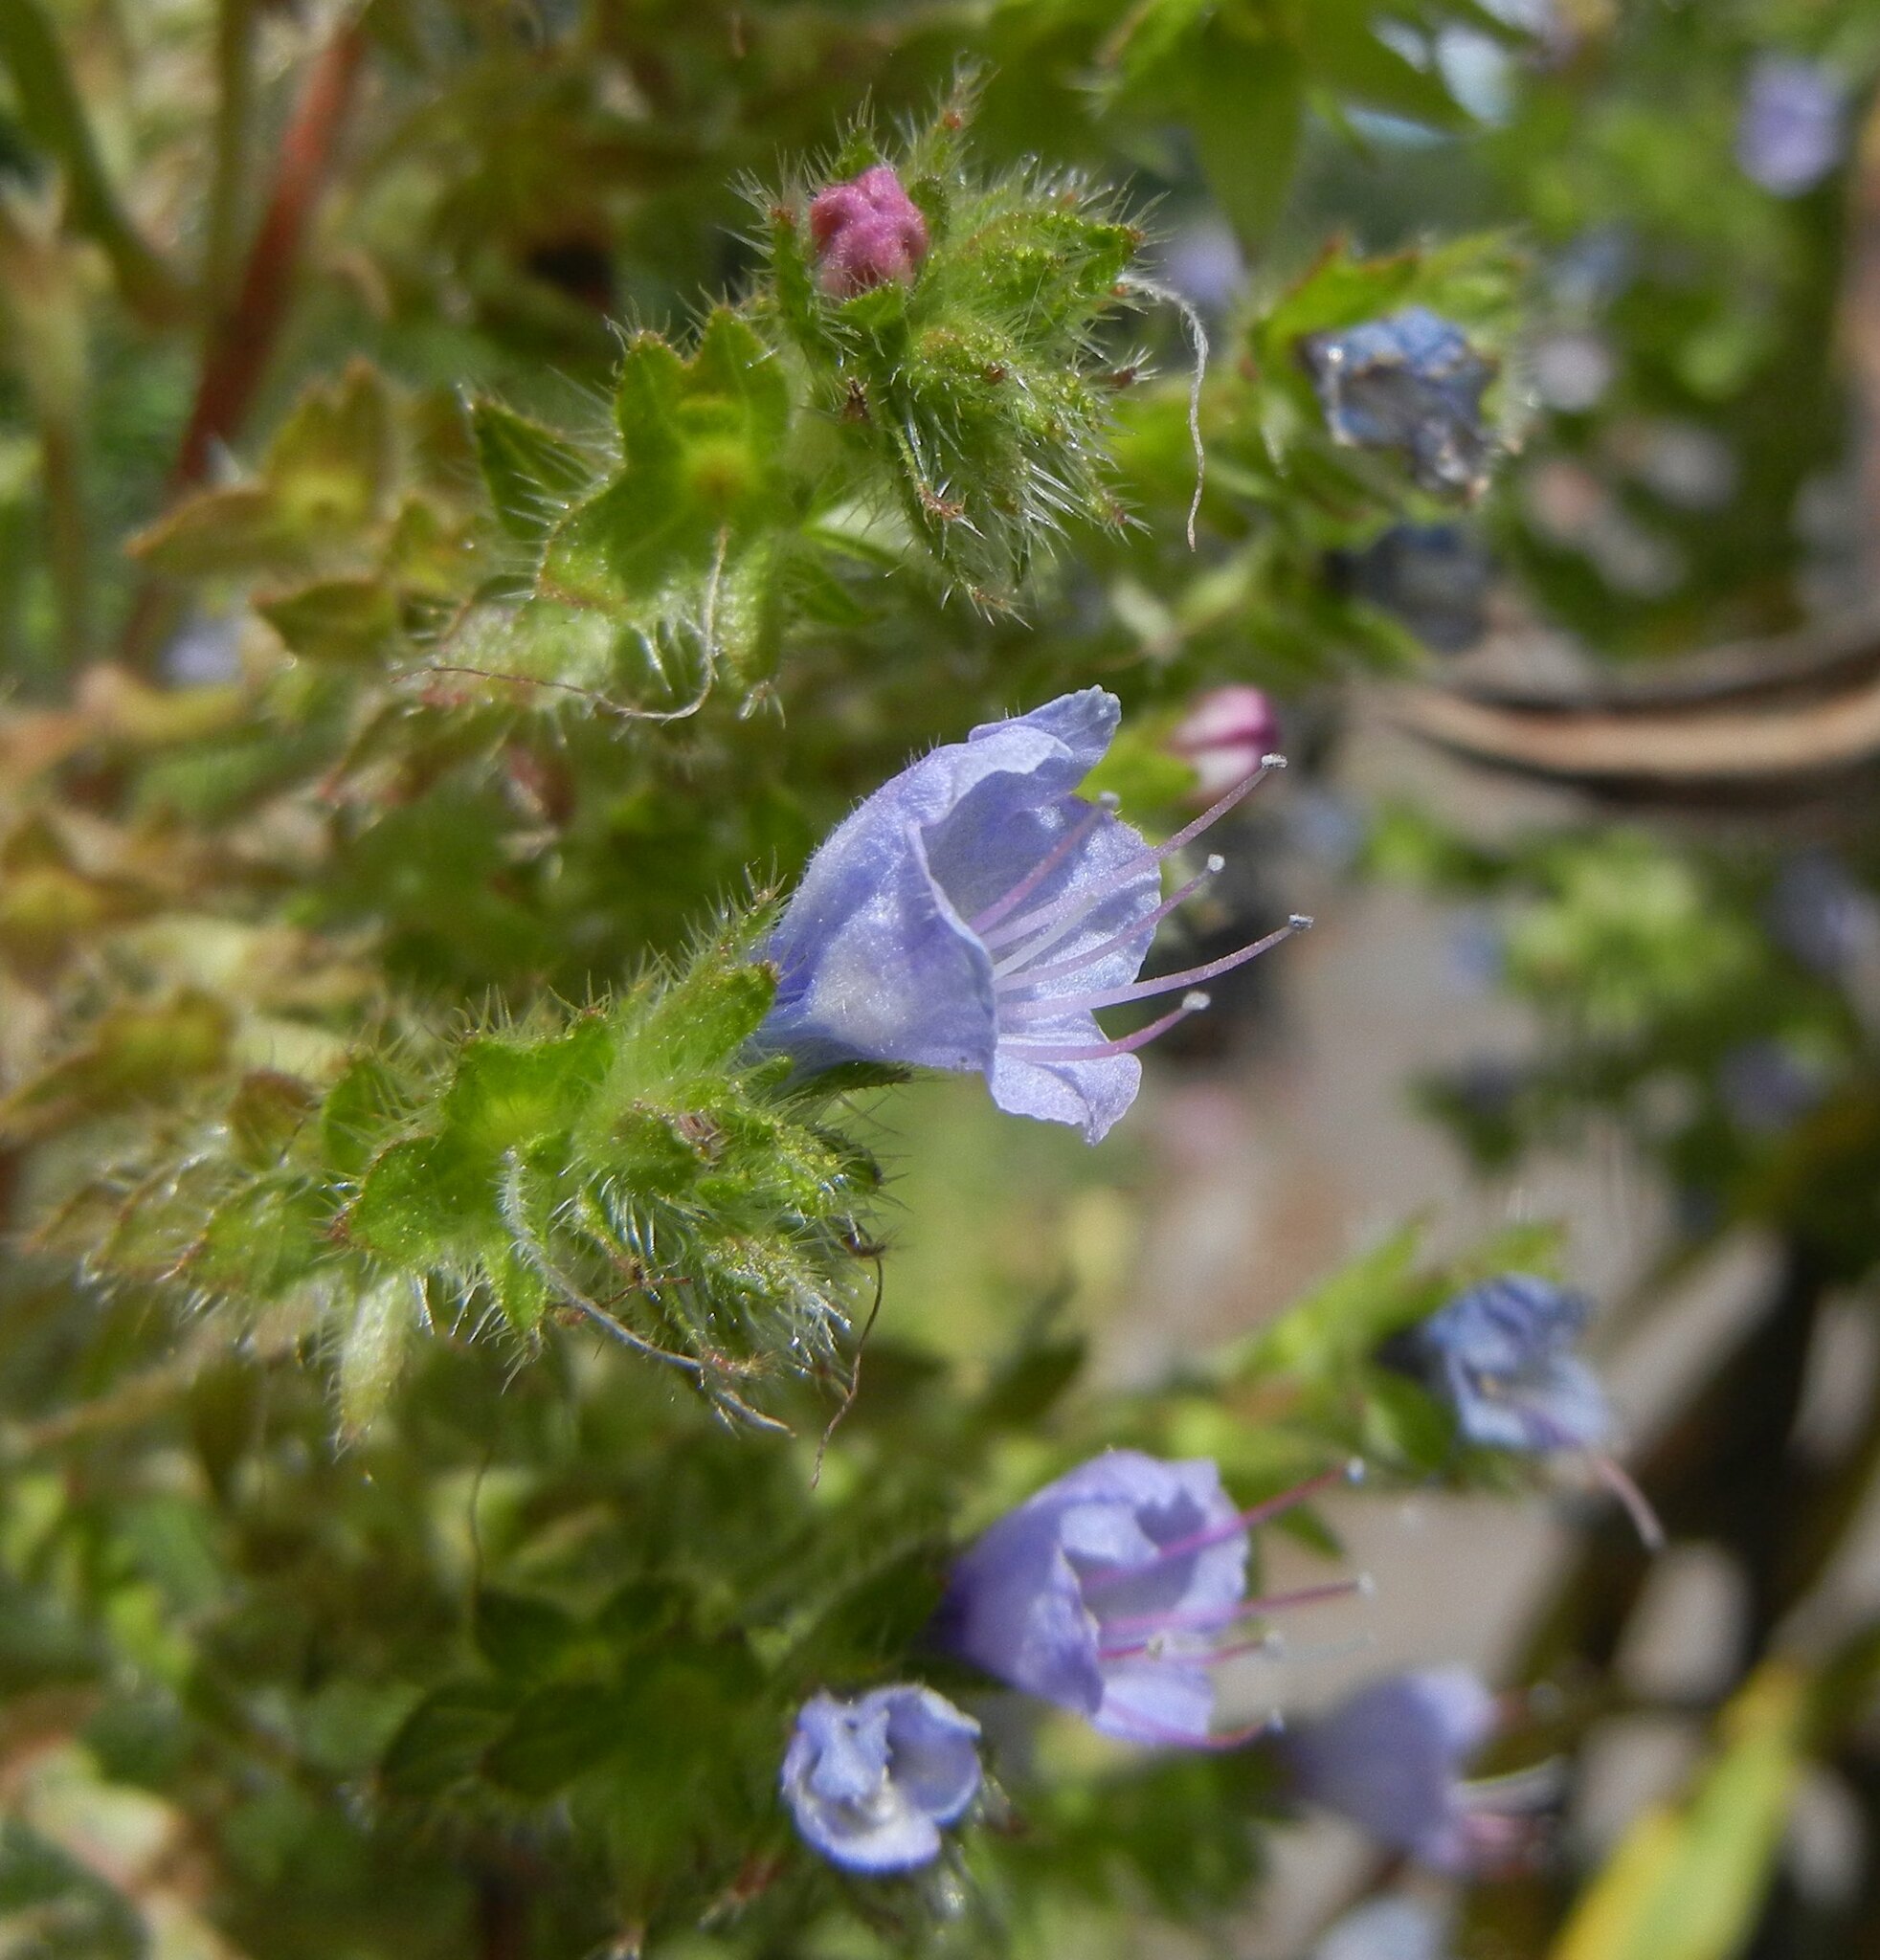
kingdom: Plantae
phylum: Tracheophyta
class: Magnoliopsida
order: Boraginales
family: Boraginaceae
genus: Echium
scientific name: Echium pininana
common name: Giant viper's-bugloss
